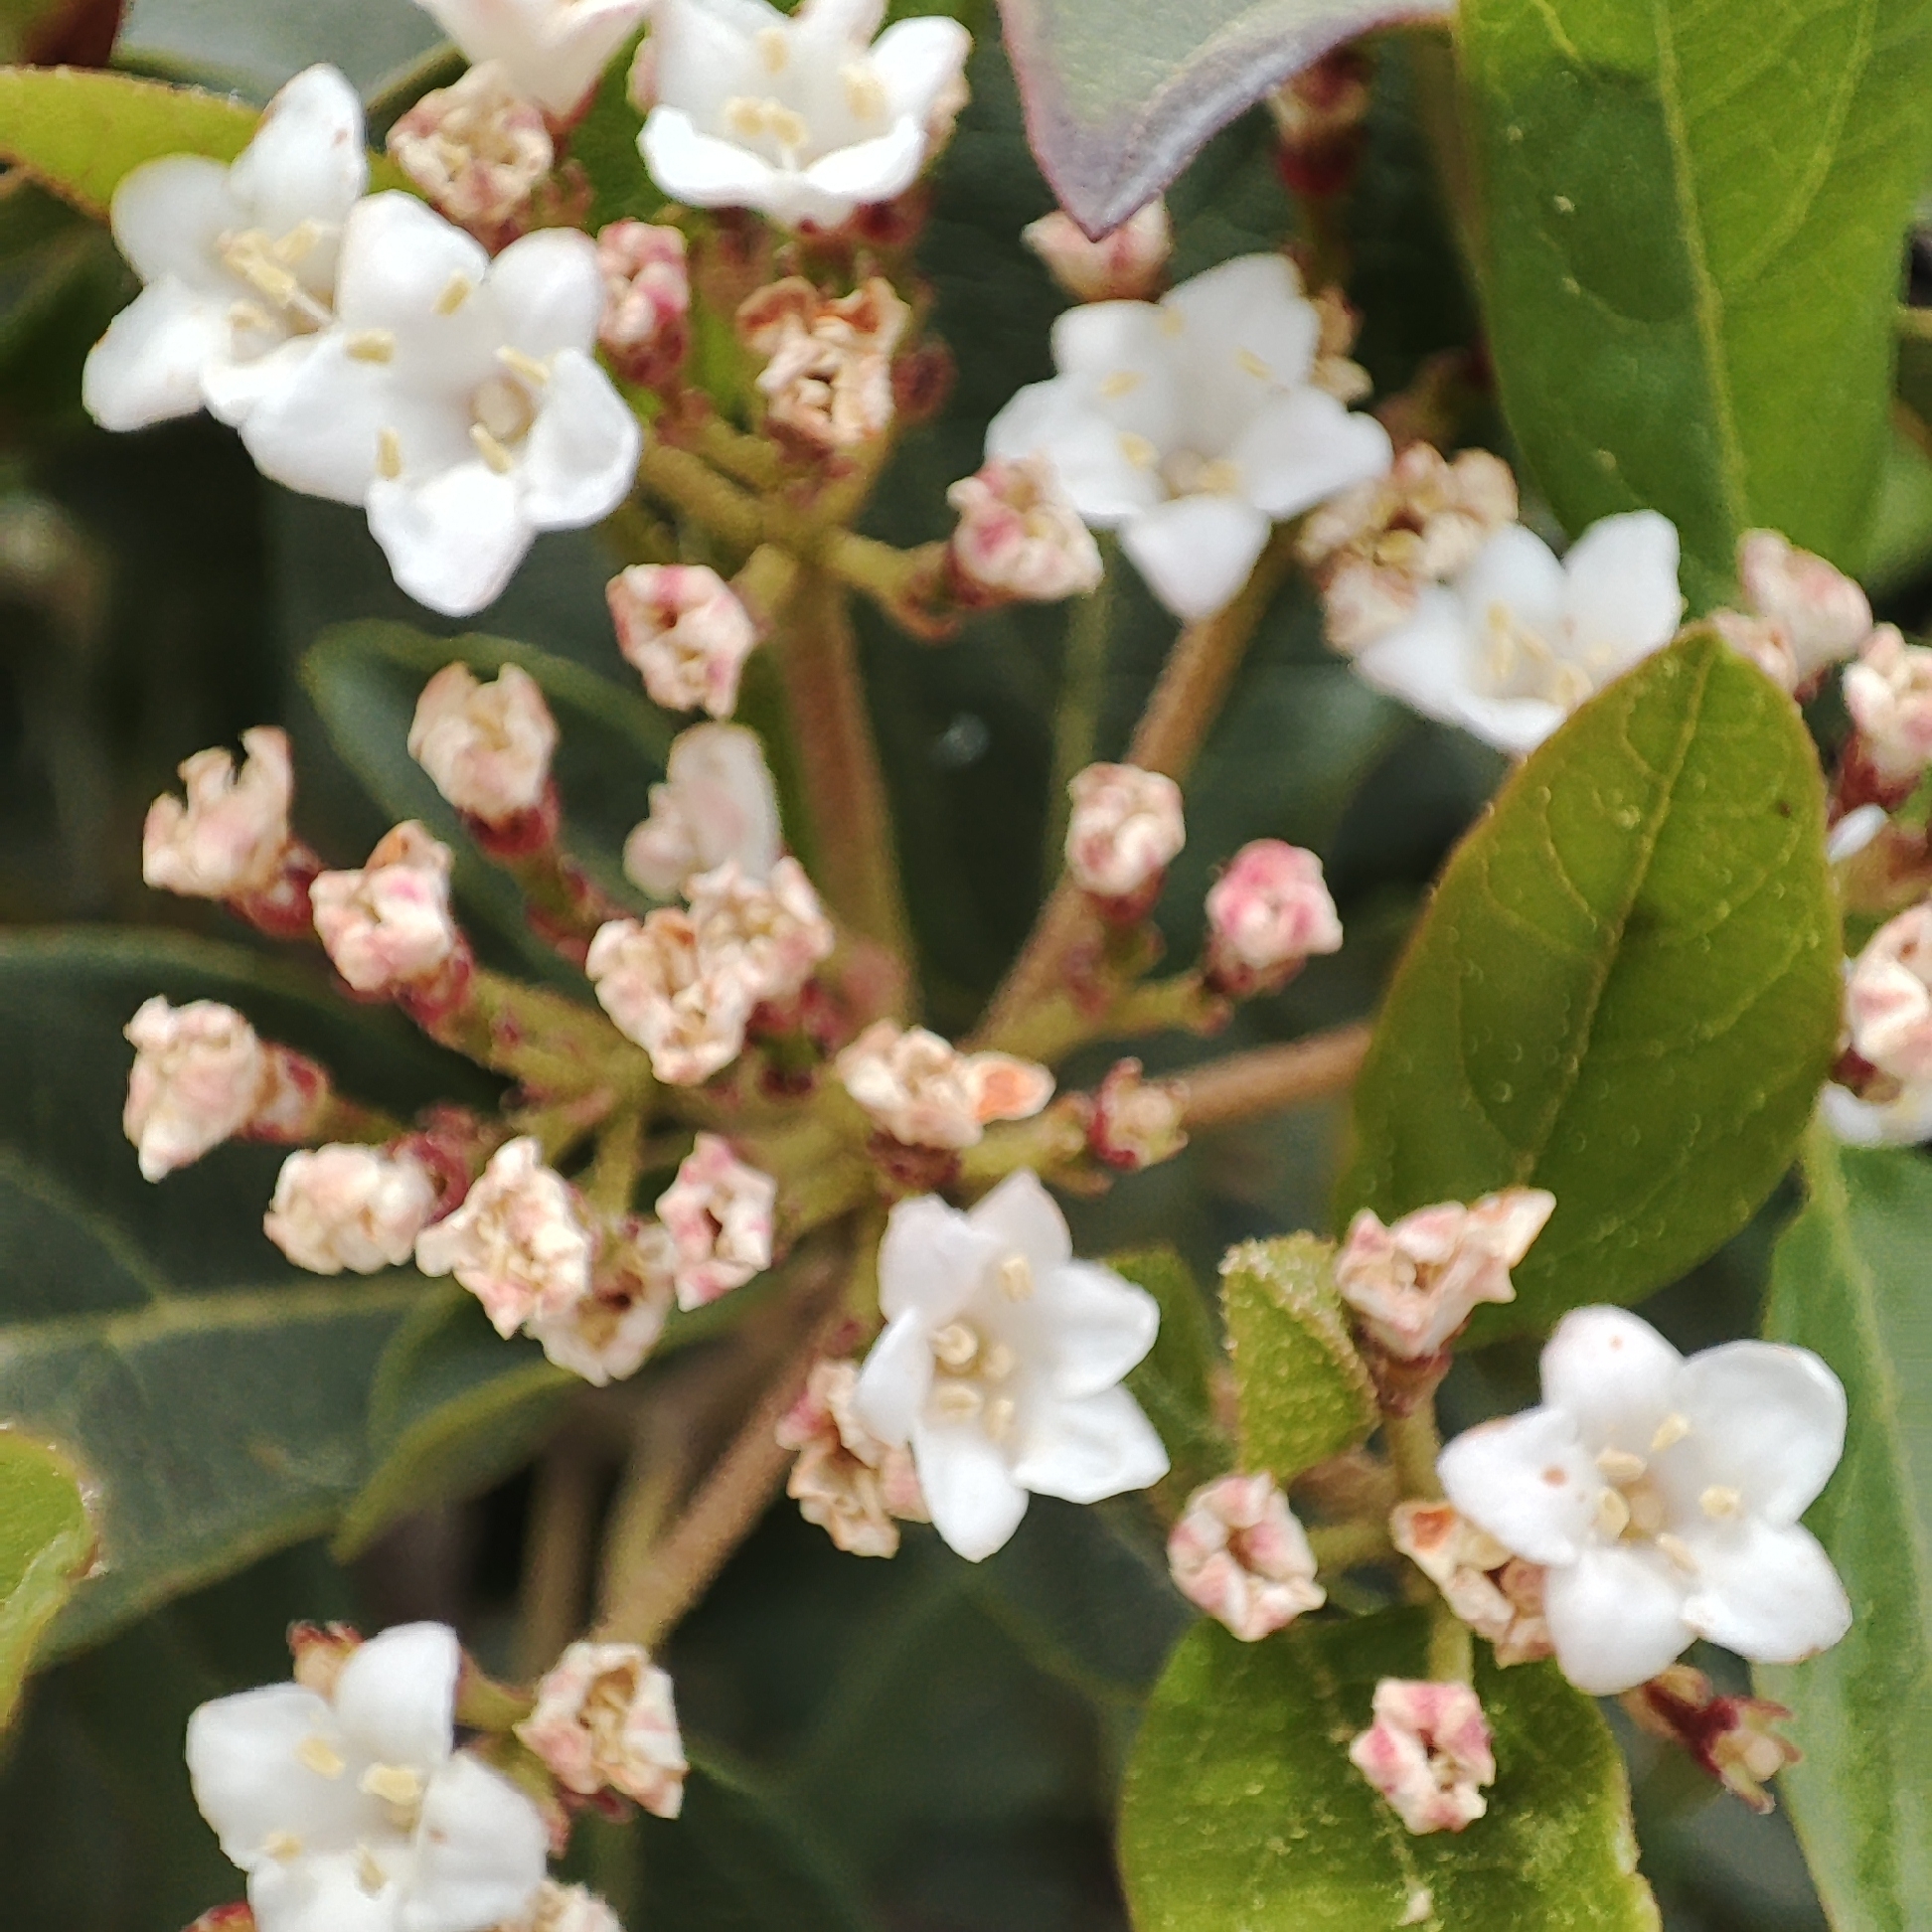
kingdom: Plantae
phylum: Tracheophyta
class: Magnoliopsida
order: Dipsacales
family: Viburnaceae
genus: Viburnum
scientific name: Viburnum tinus
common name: Laurustinus
